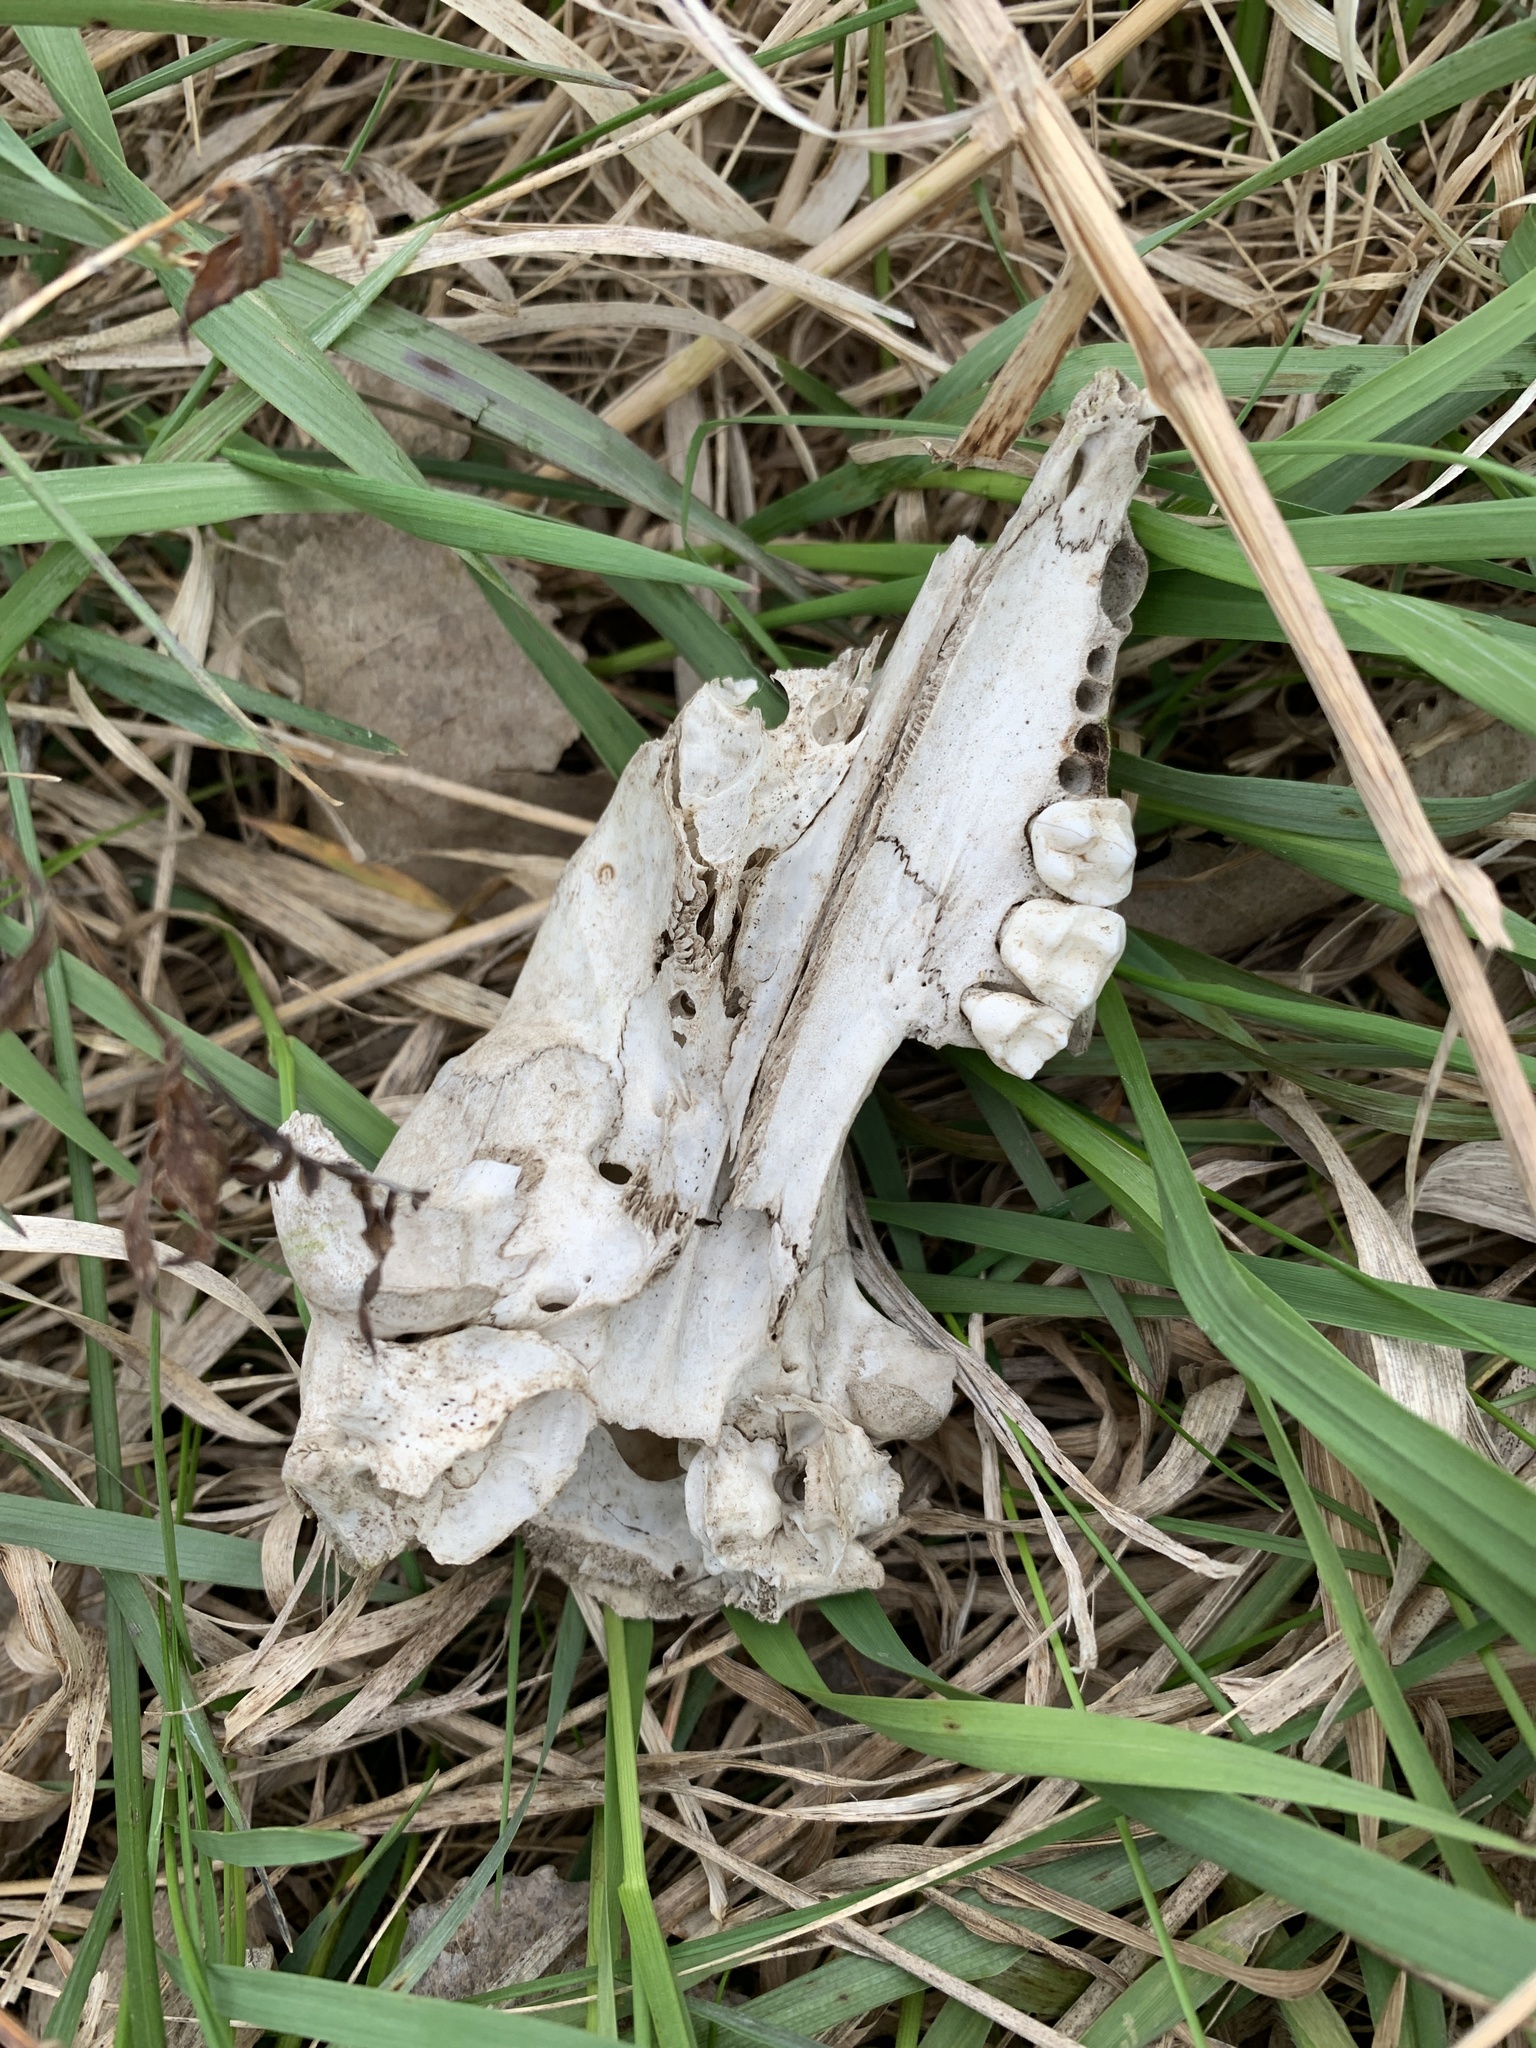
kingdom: Animalia
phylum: Chordata
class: Mammalia
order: Carnivora
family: Procyonidae
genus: Procyon
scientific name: Procyon lotor
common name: Raccoon
